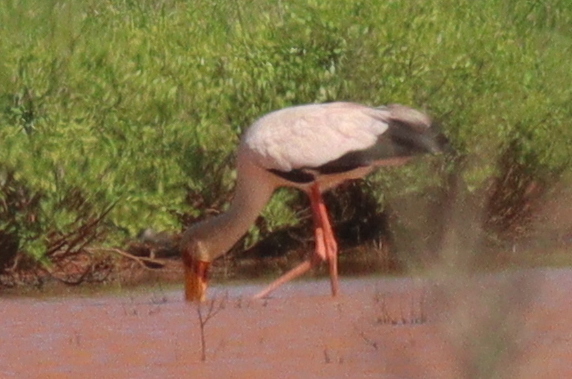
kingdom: Animalia
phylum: Chordata
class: Aves
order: Ciconiiformes
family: Ciconiidae
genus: Mycteria
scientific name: Mycteria ibis
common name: Yellow-billed stork
